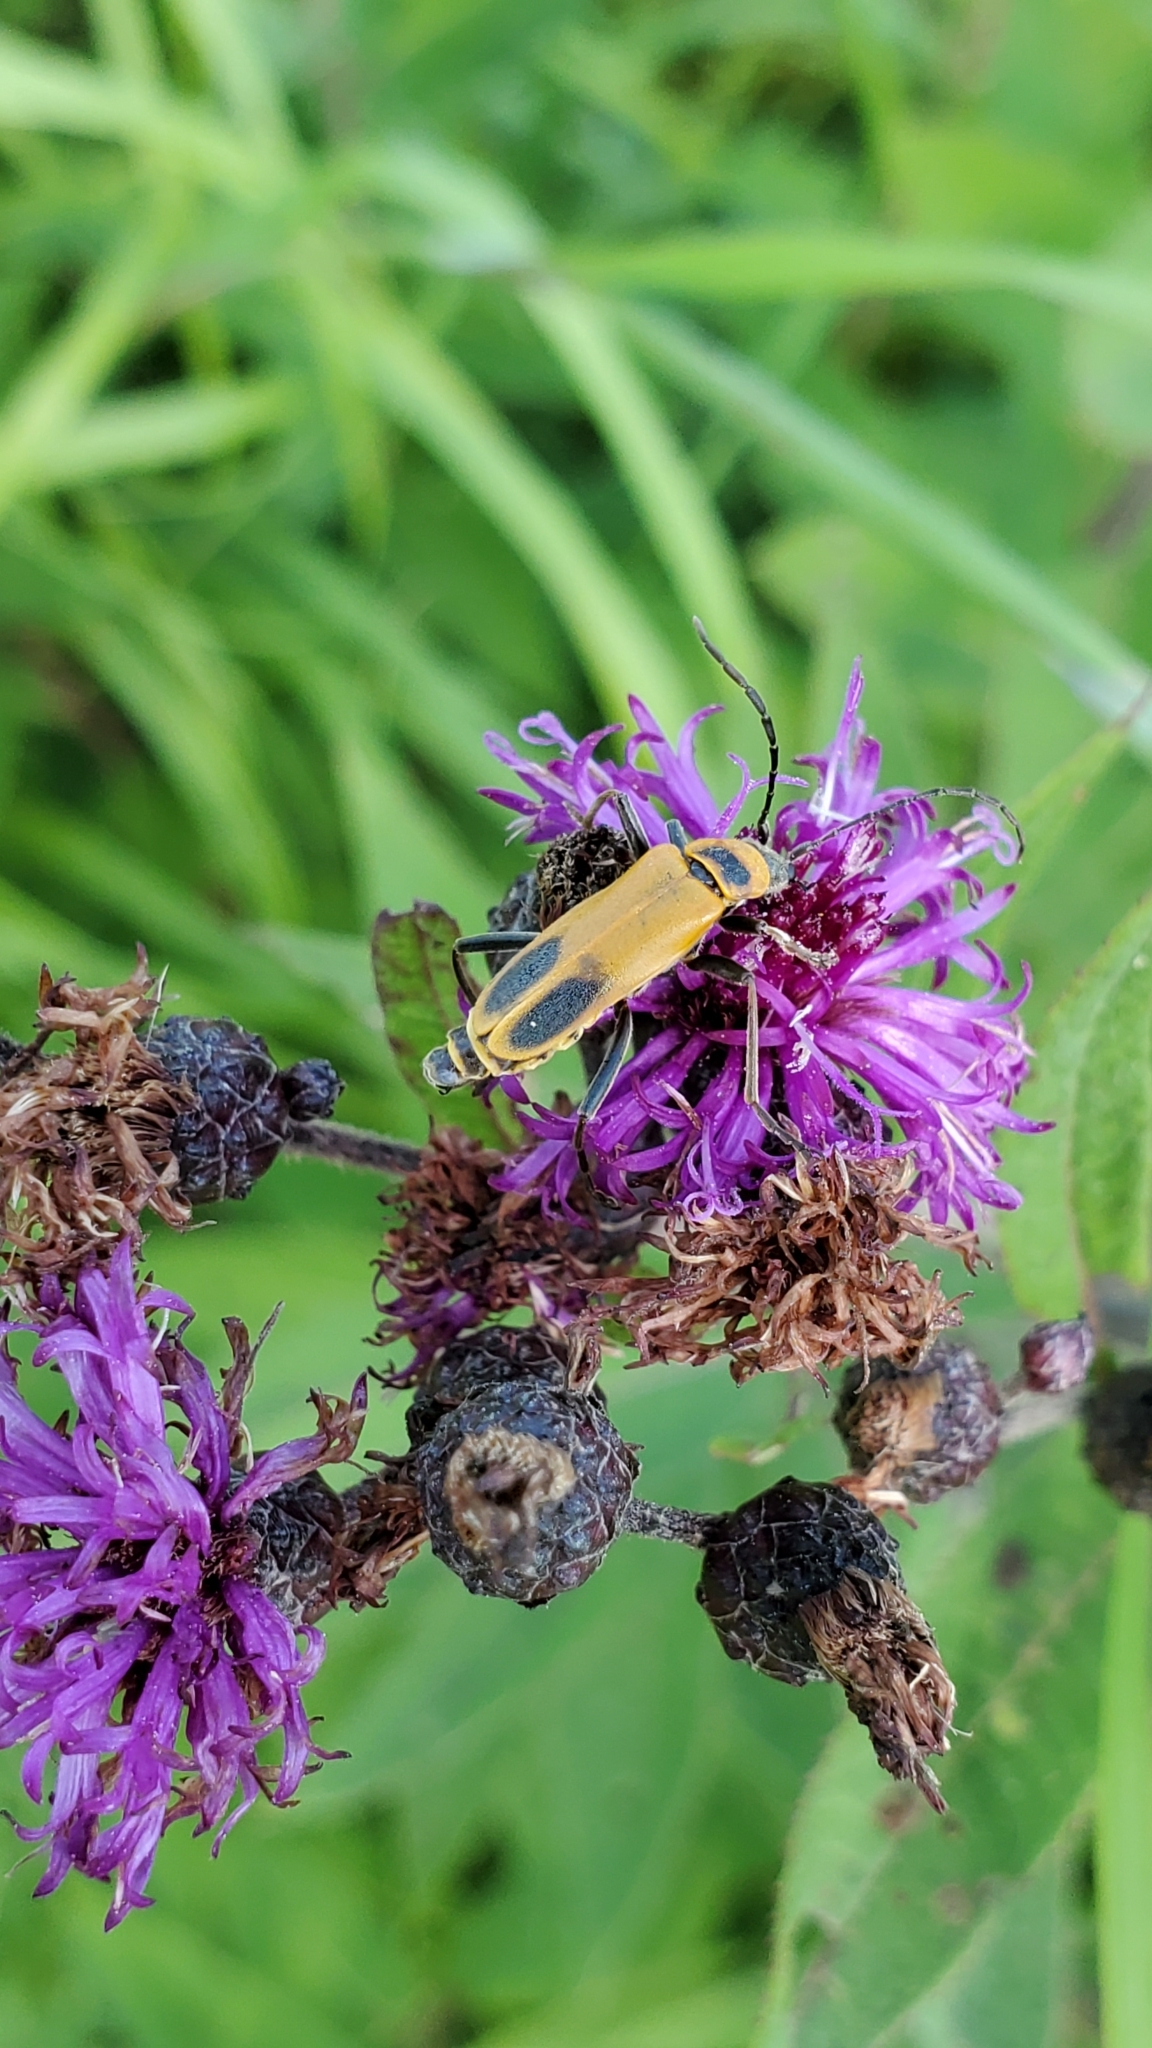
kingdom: Animalia
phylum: Arthropoda
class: Insecta
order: Coleoptera
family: Cantharidae
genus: Chauliognathus
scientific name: Chauliognathus pensylvanicus
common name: Goldenrod soldier beetle
